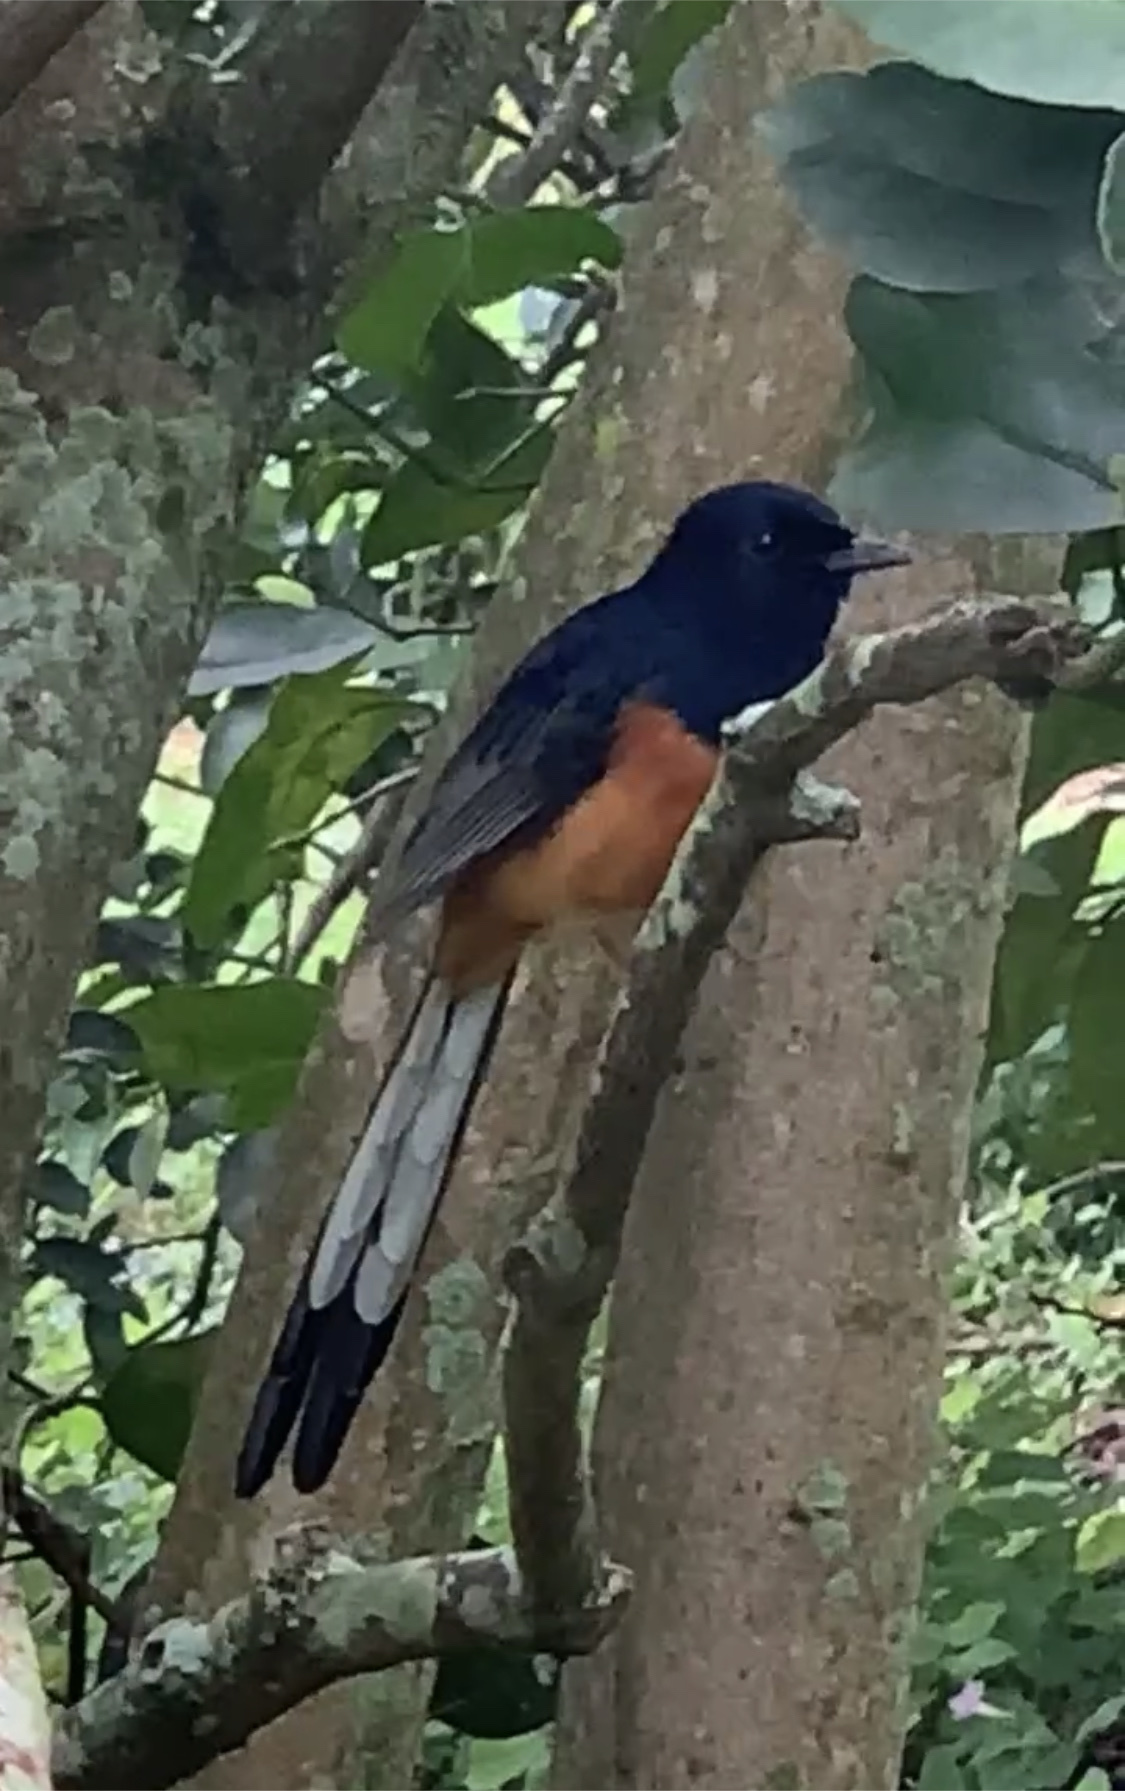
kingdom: Animalia
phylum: Chordata
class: Aves
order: Passeriformes
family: Muscicapidae
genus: Copsychus
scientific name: Copsychus malabaricus
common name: White-rumped shama
